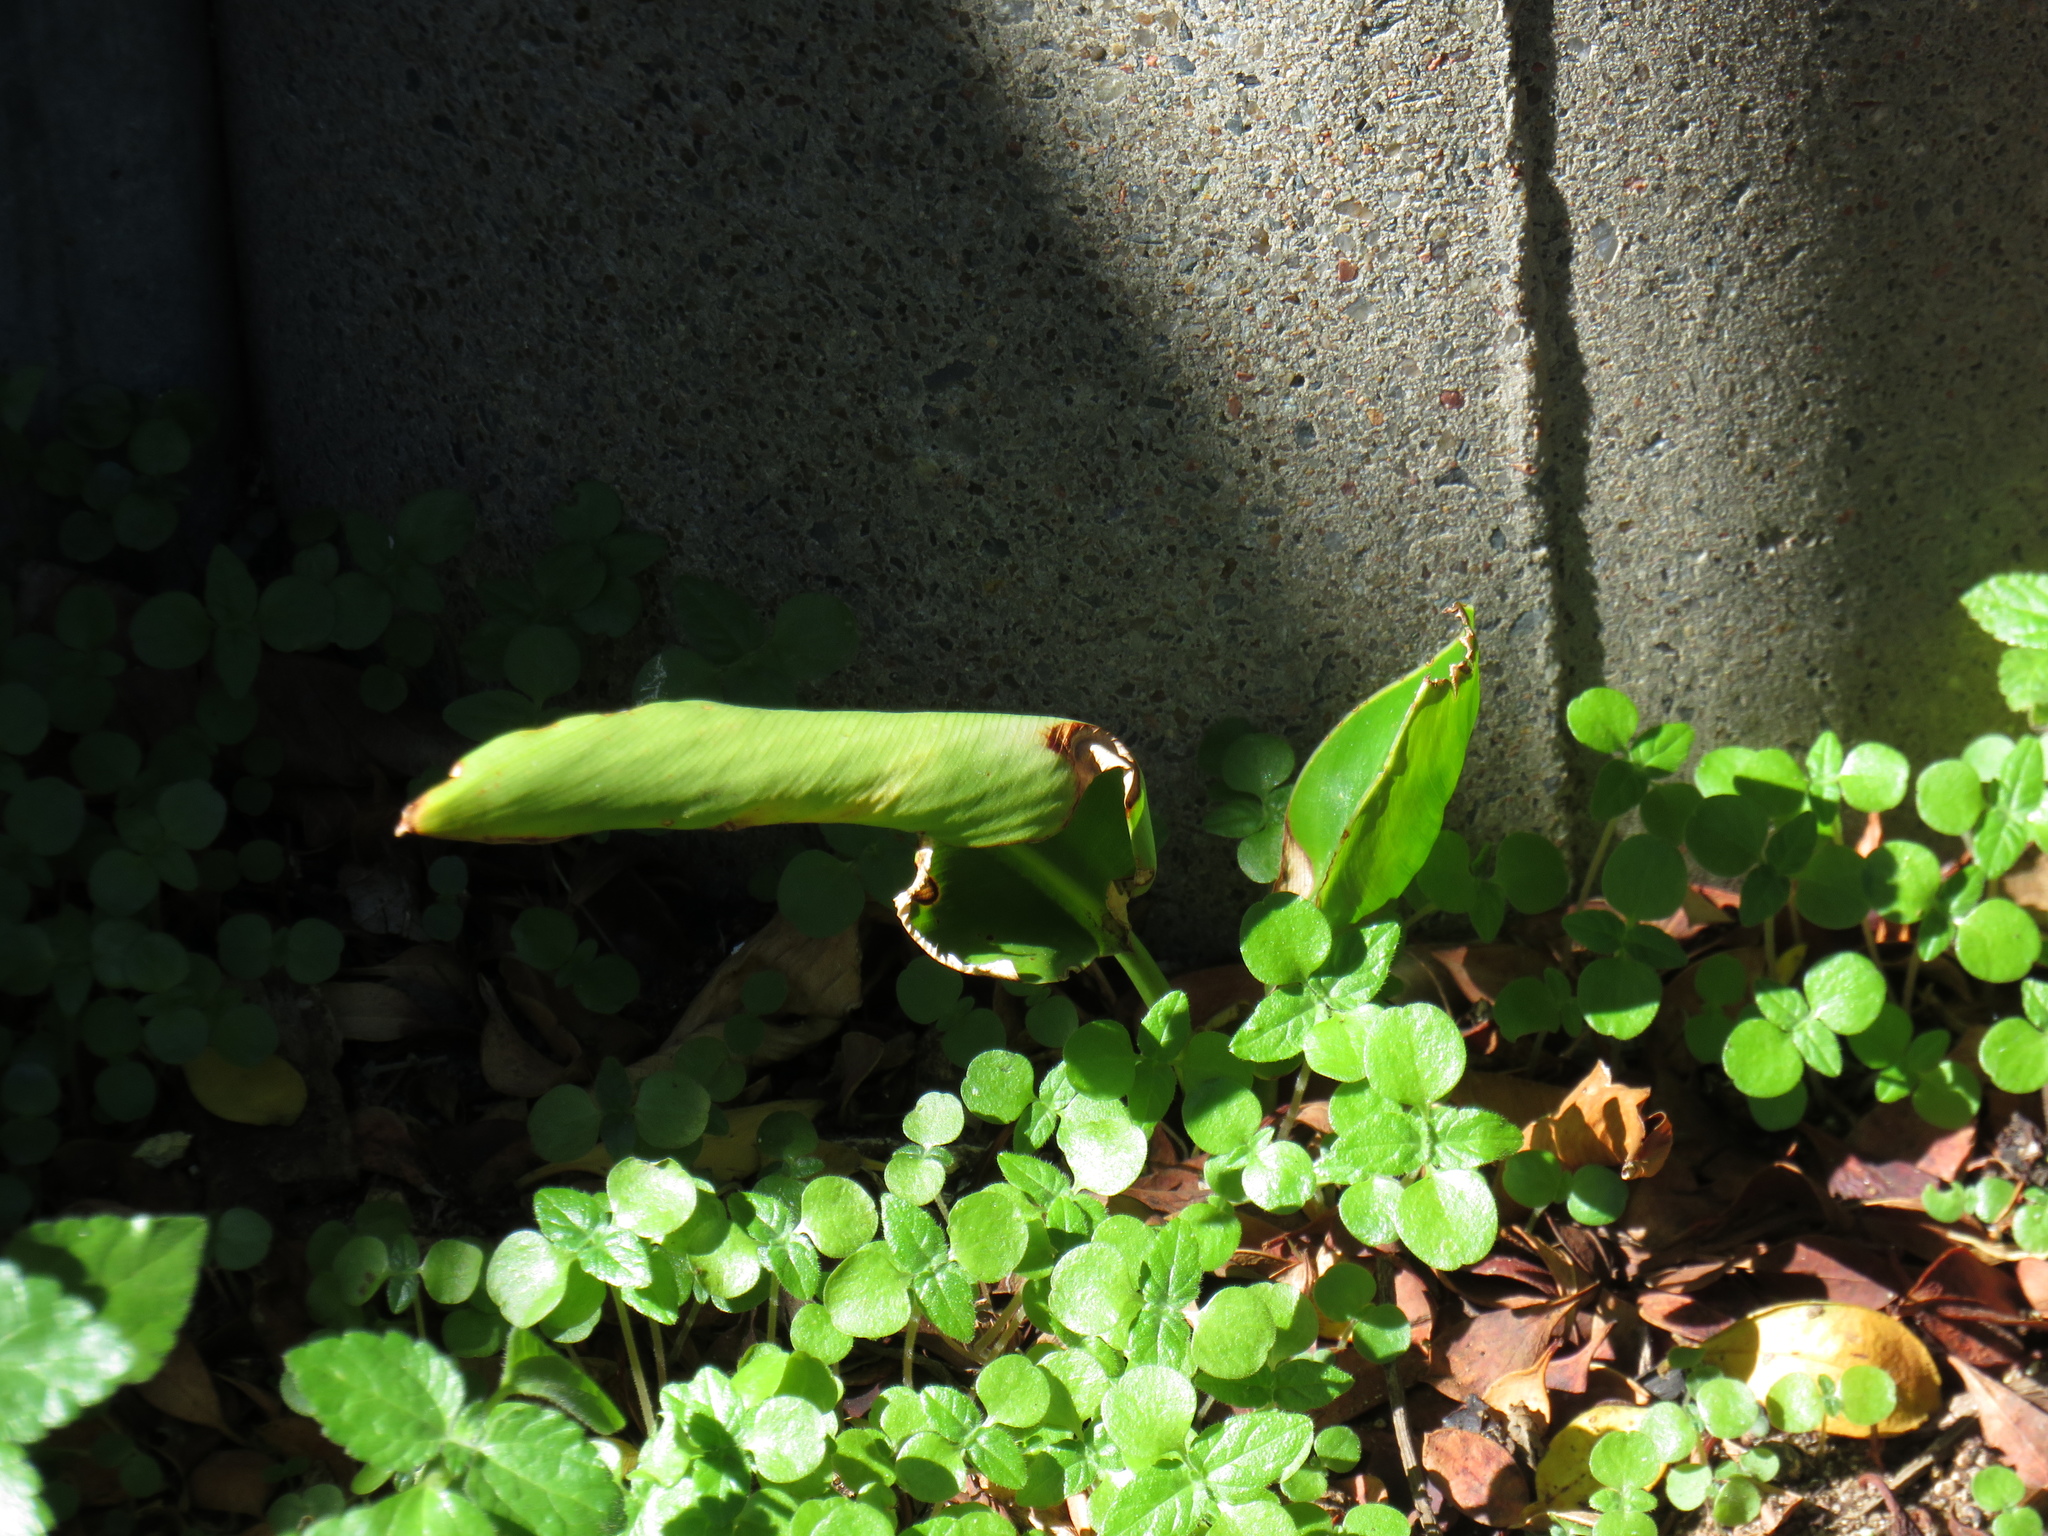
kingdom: Plantae
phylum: Tracheophyta
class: Liliopsida
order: Zingiberales
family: Strelitziaceae
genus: Strelitzia
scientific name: Strelitzia nicolai
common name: Bird-of-paradise tree
